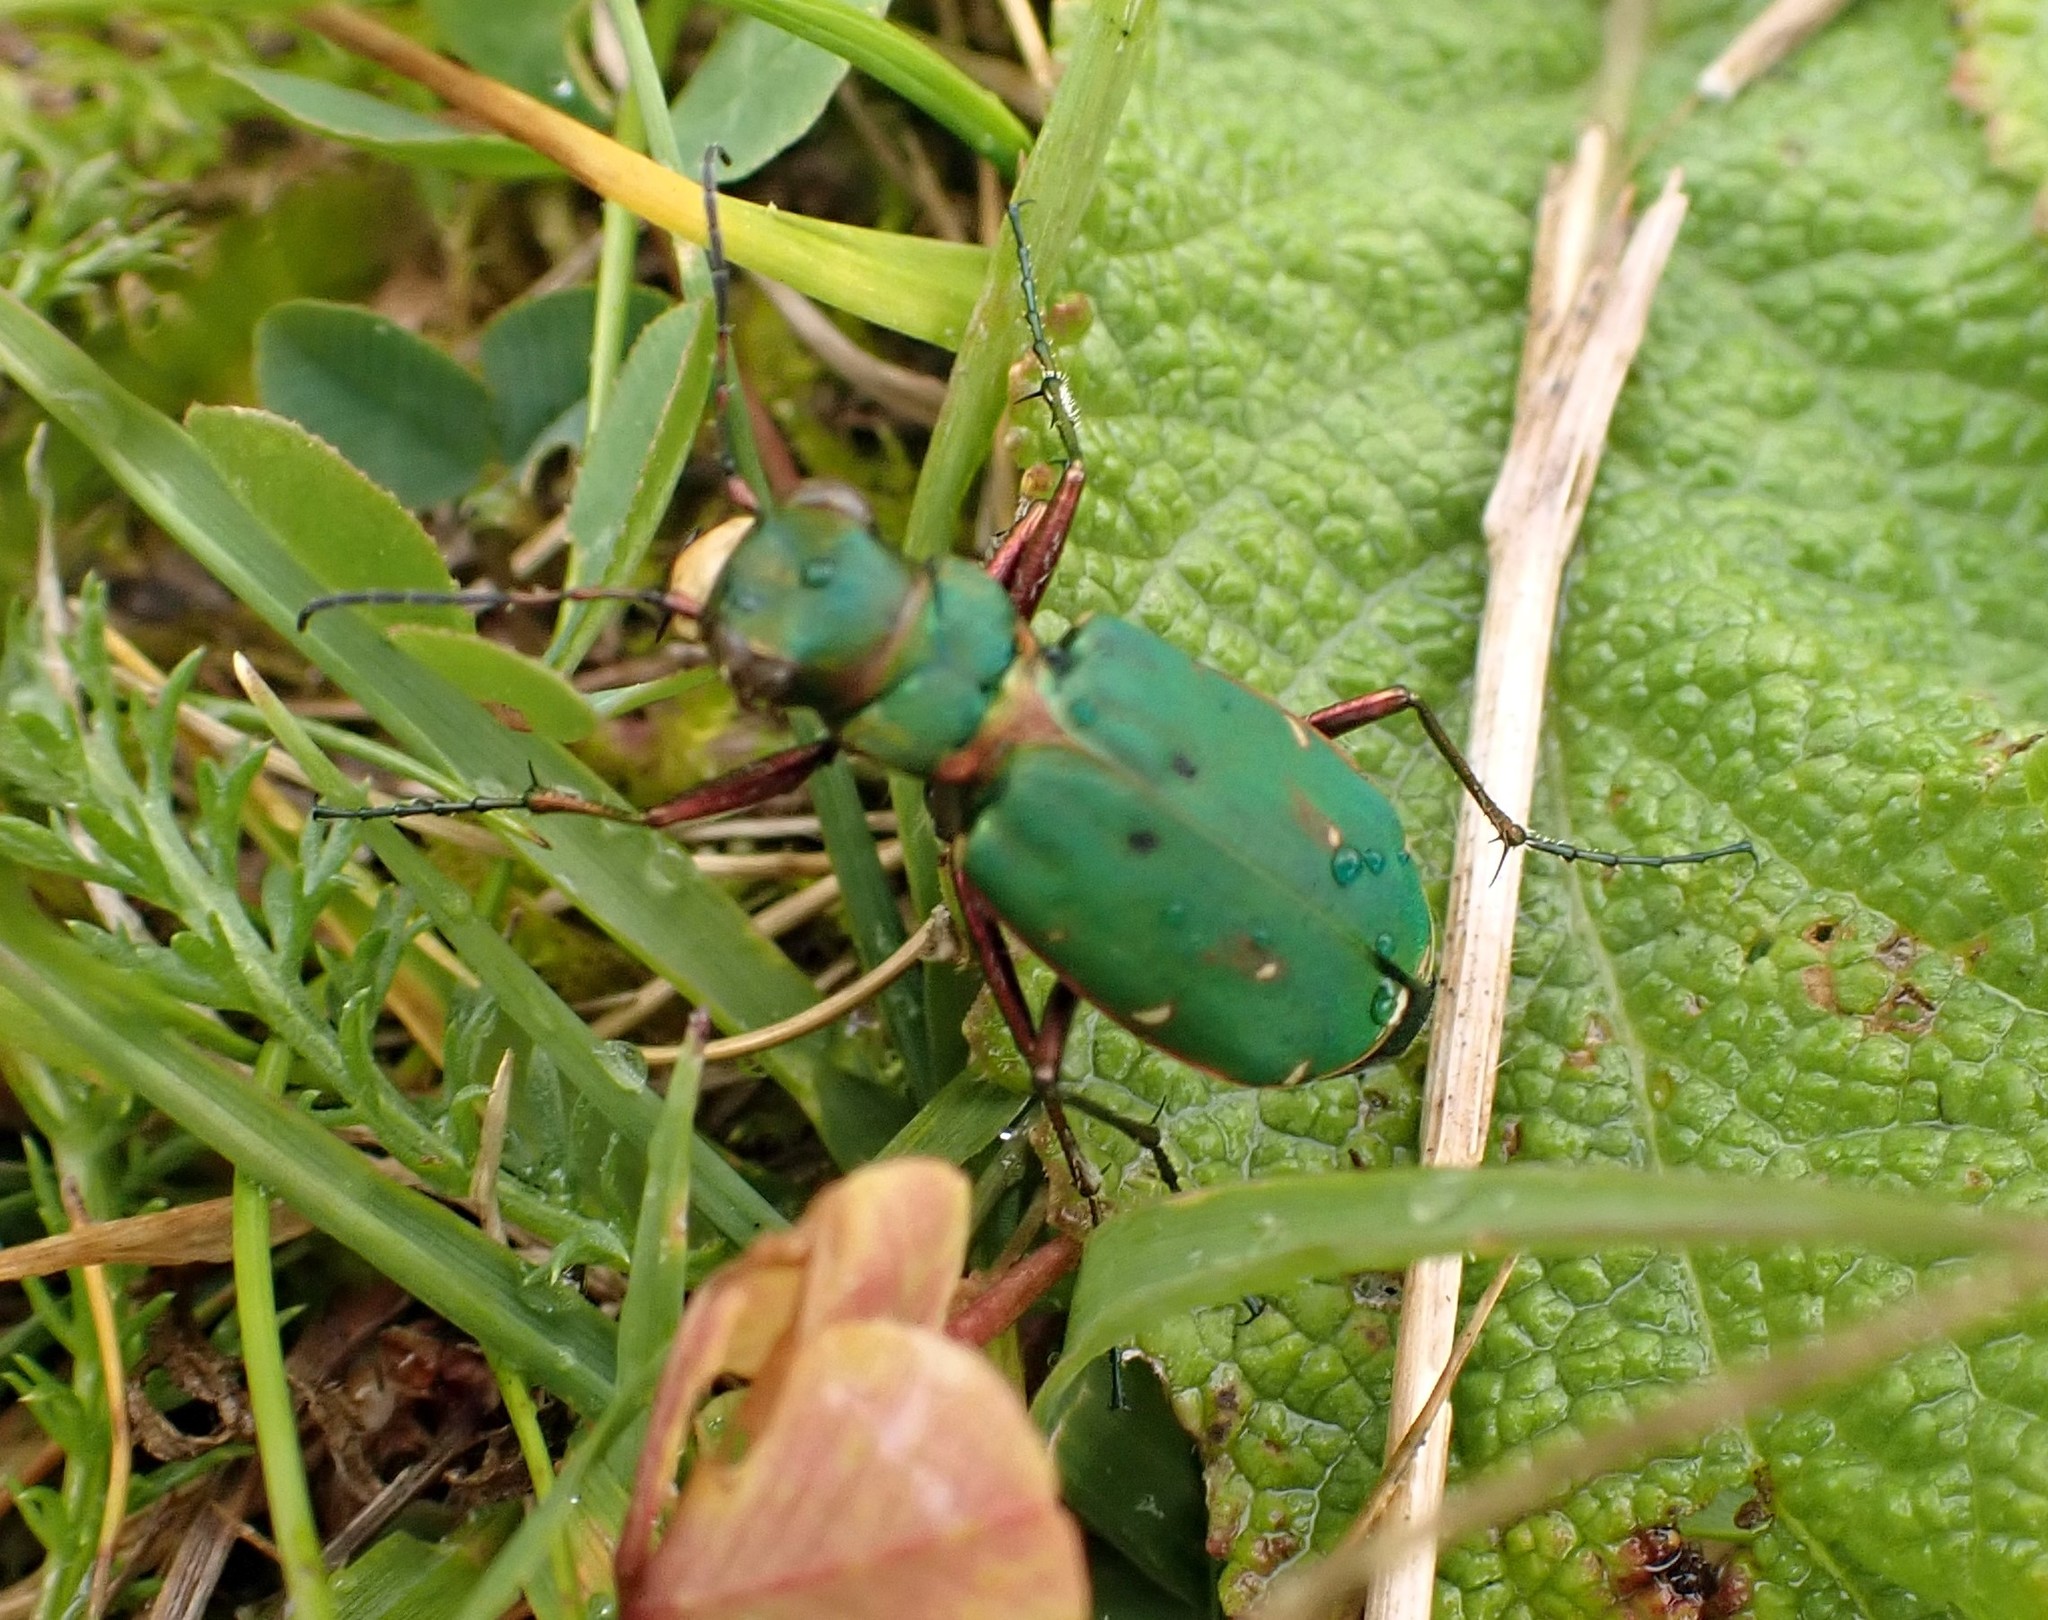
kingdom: Animalia
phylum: Arthropoda
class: Insecta
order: Coleoptera
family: Carabidae
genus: Cicindela
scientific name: Cicindela campestris
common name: Common tiger beetle
